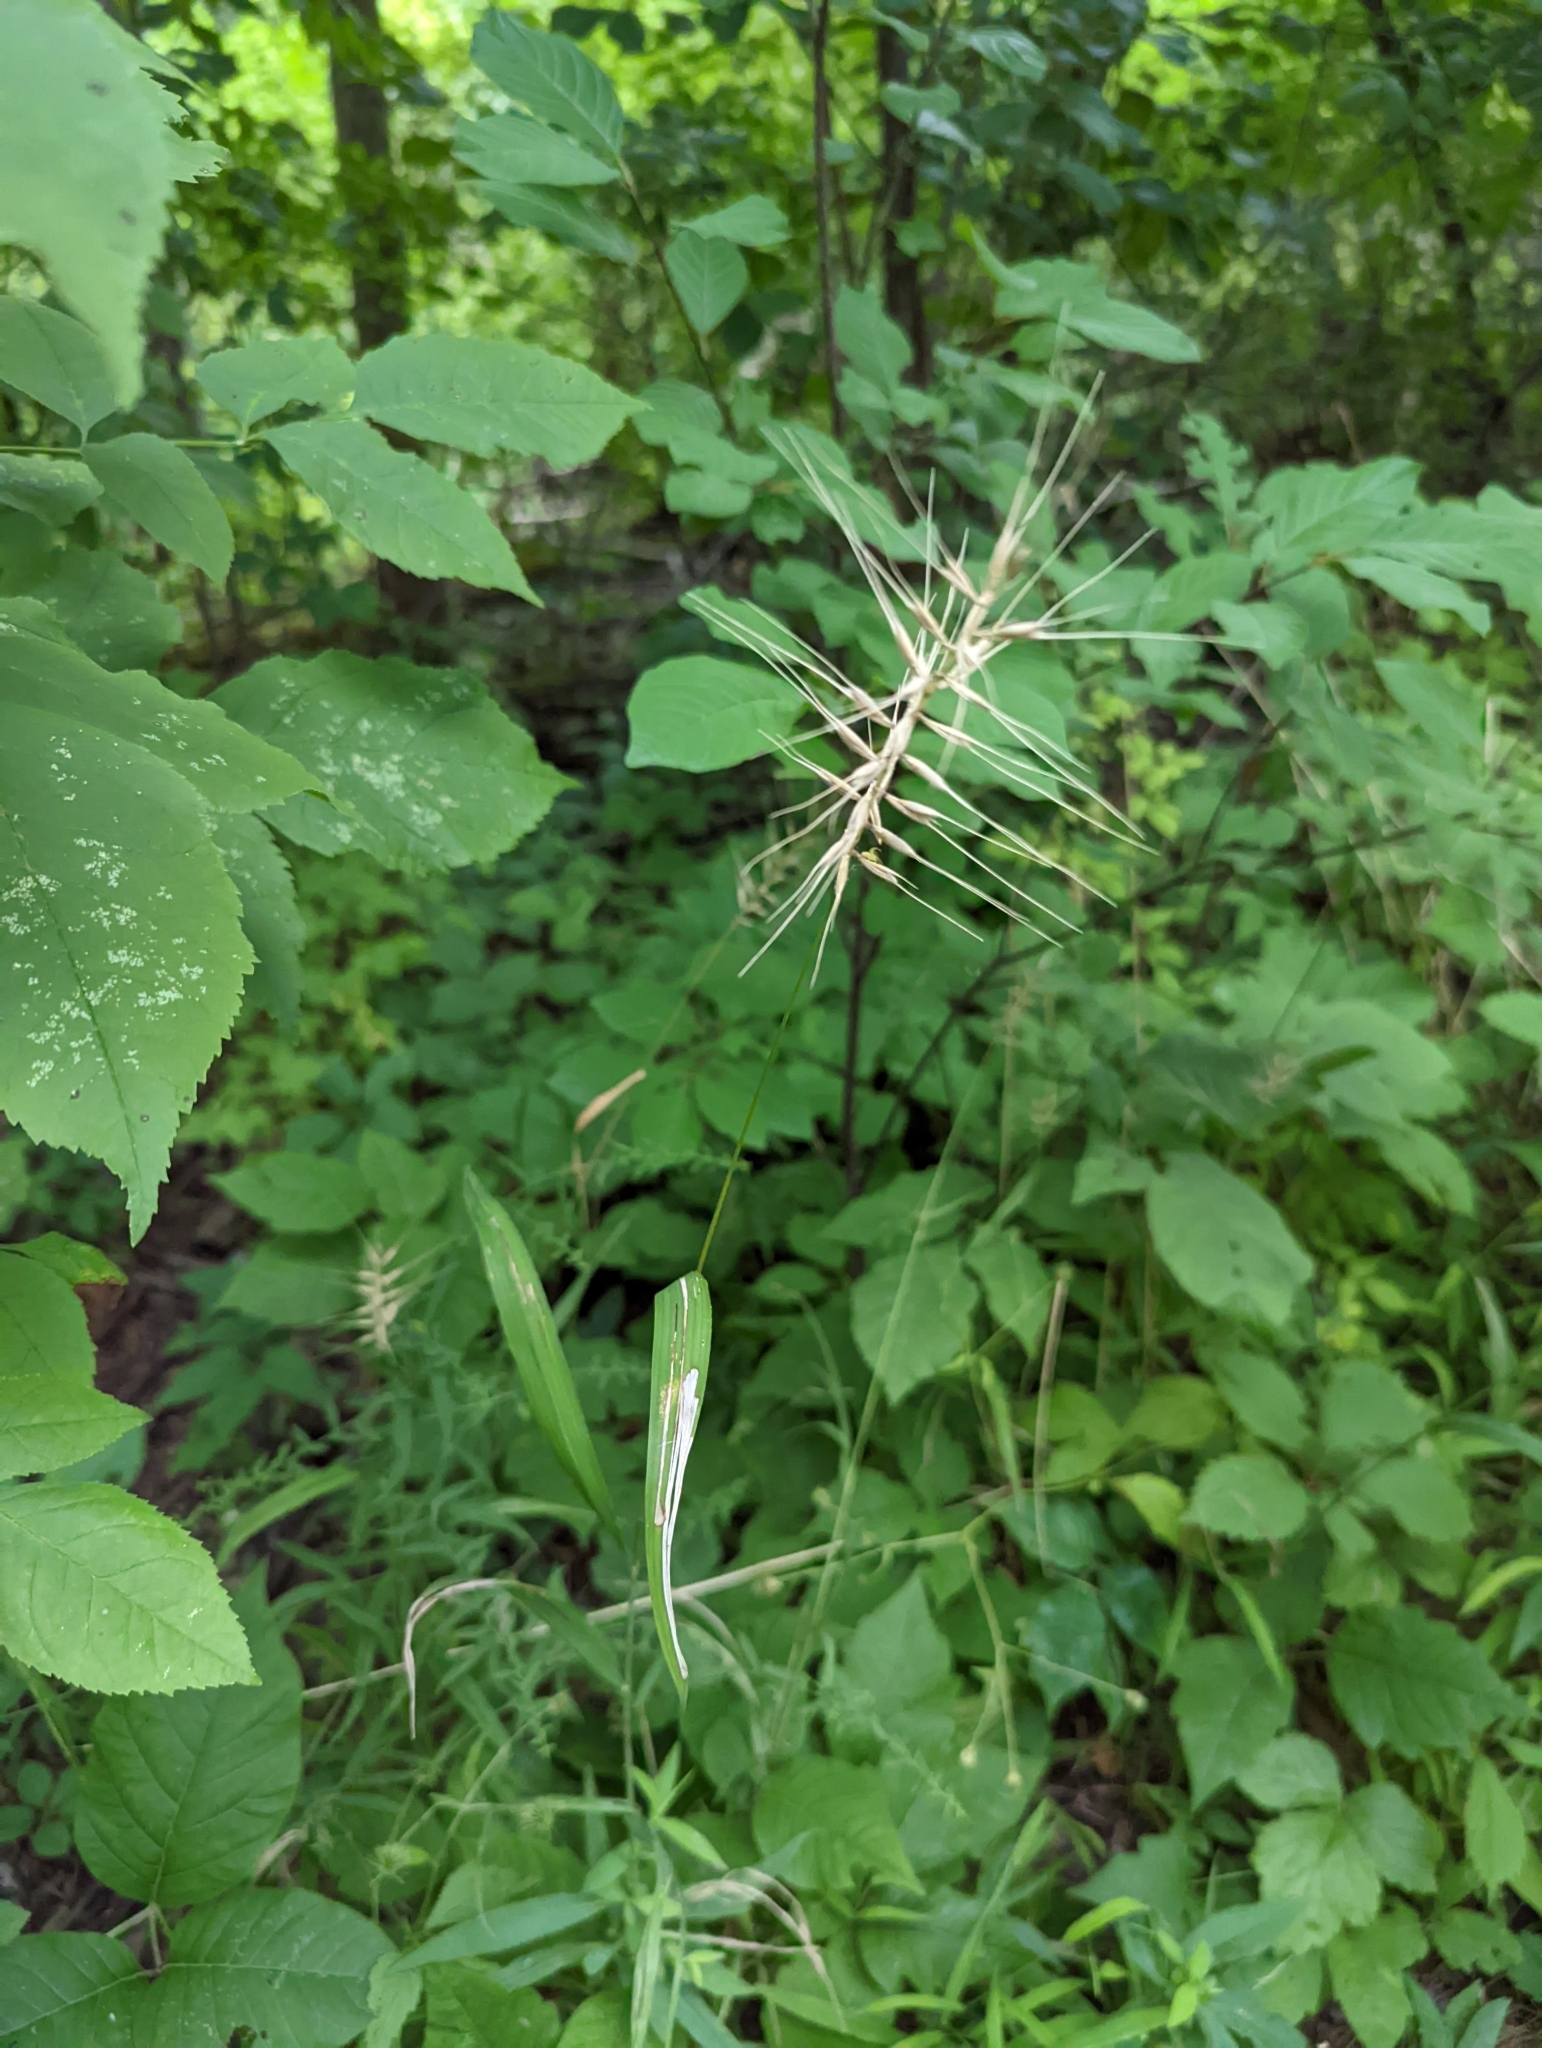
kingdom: Plantae
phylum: Tracheophyta
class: Liliopsida
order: Poales
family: Poaceae
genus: Elymus
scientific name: Elymus hystrix
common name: Bottlebrush grass
